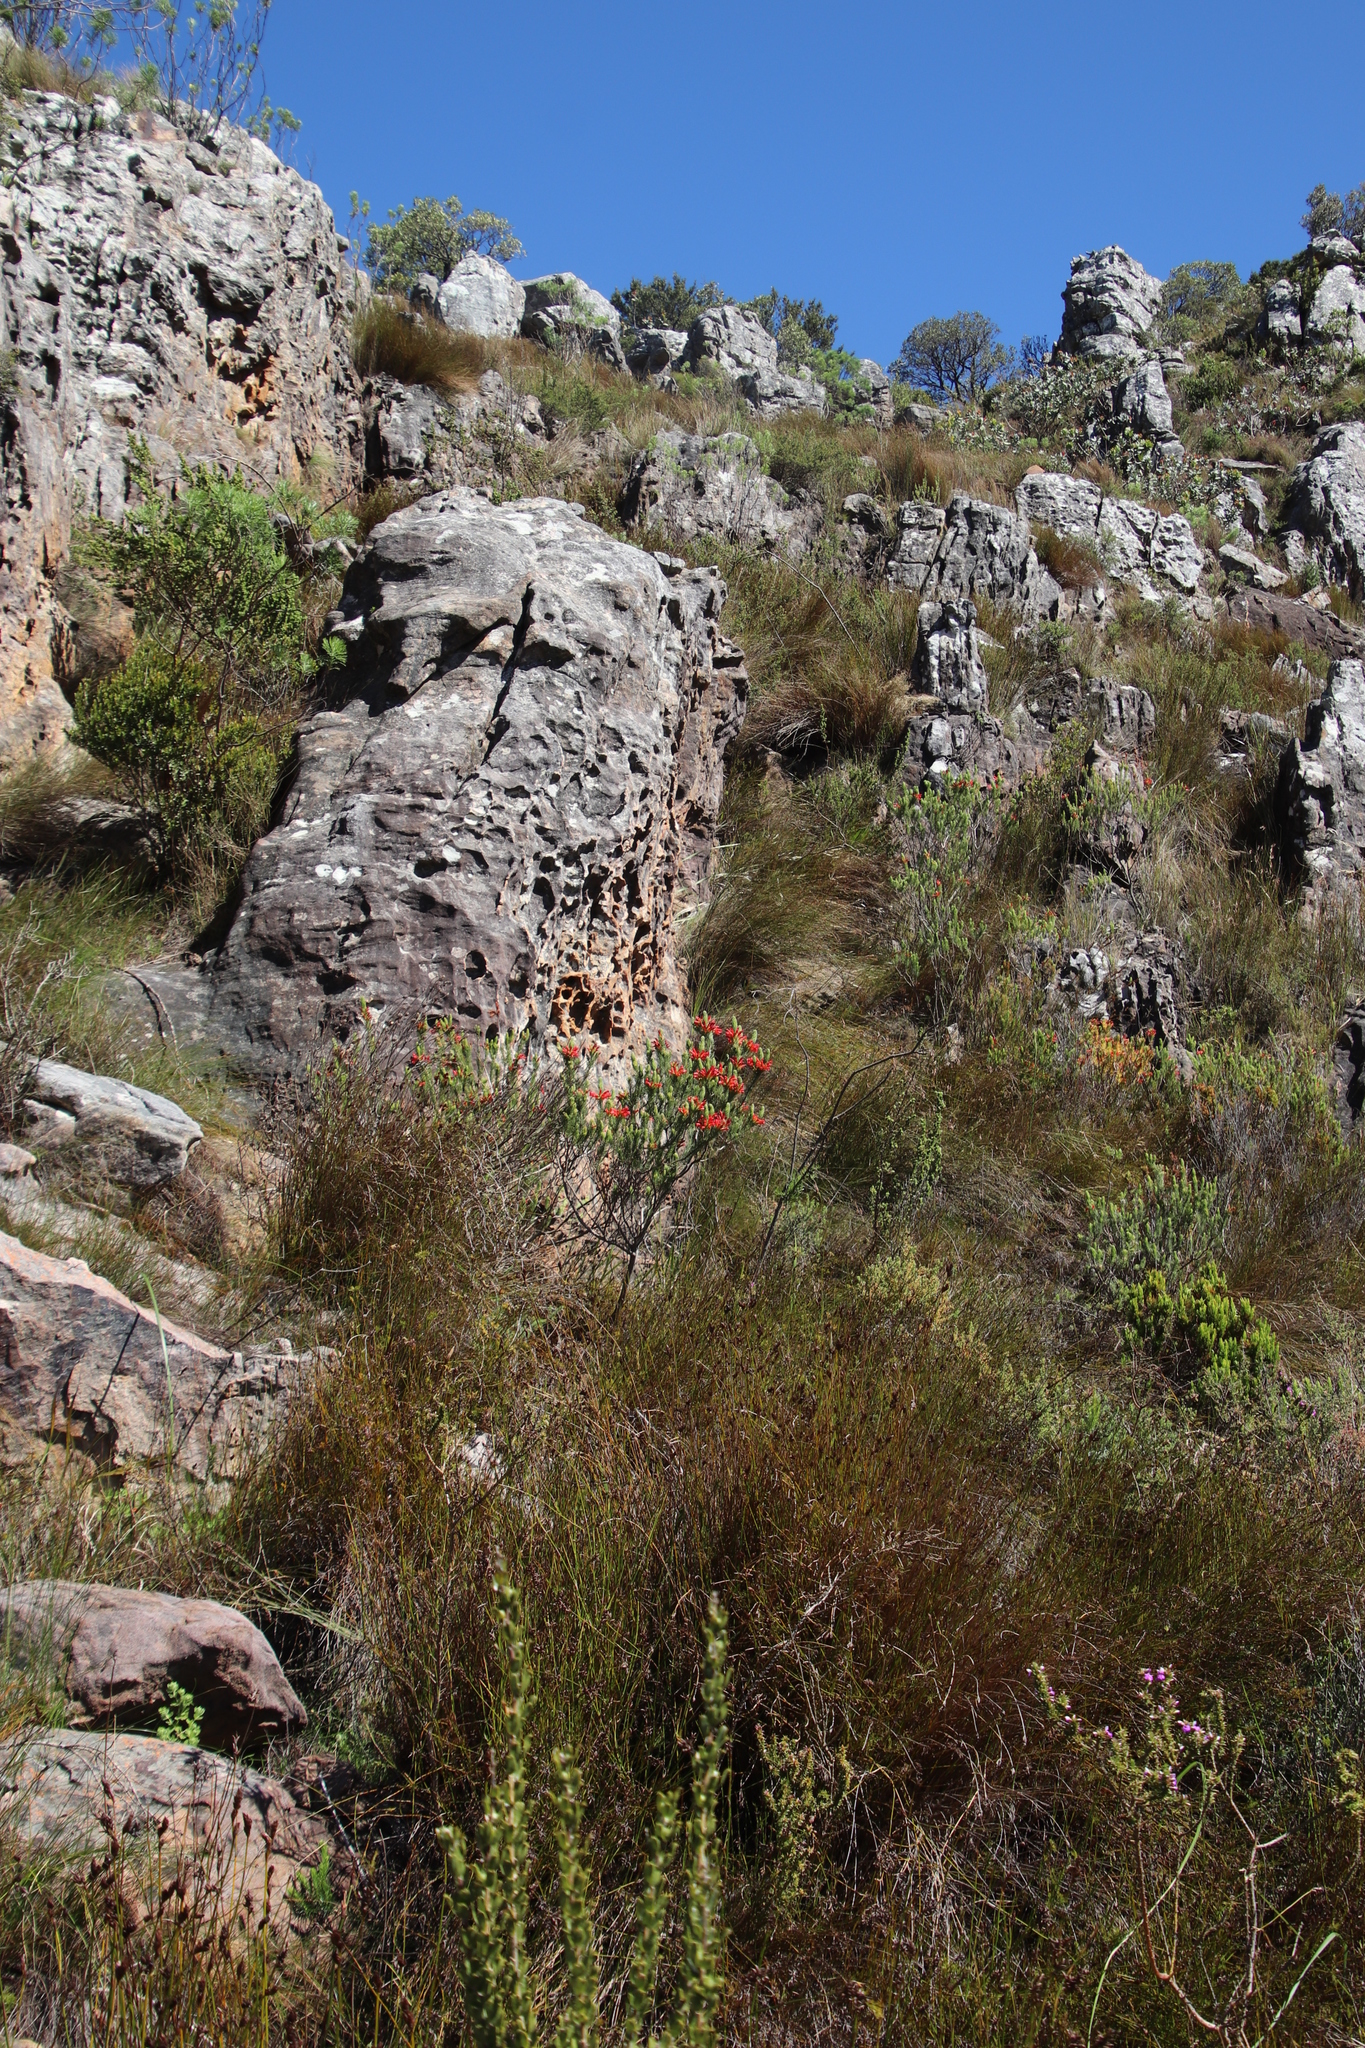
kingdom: Plantae
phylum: Tracheophyta
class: Magnoliopsida
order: Ericales
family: Ericaceae
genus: Erica
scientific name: Erica viscaria
